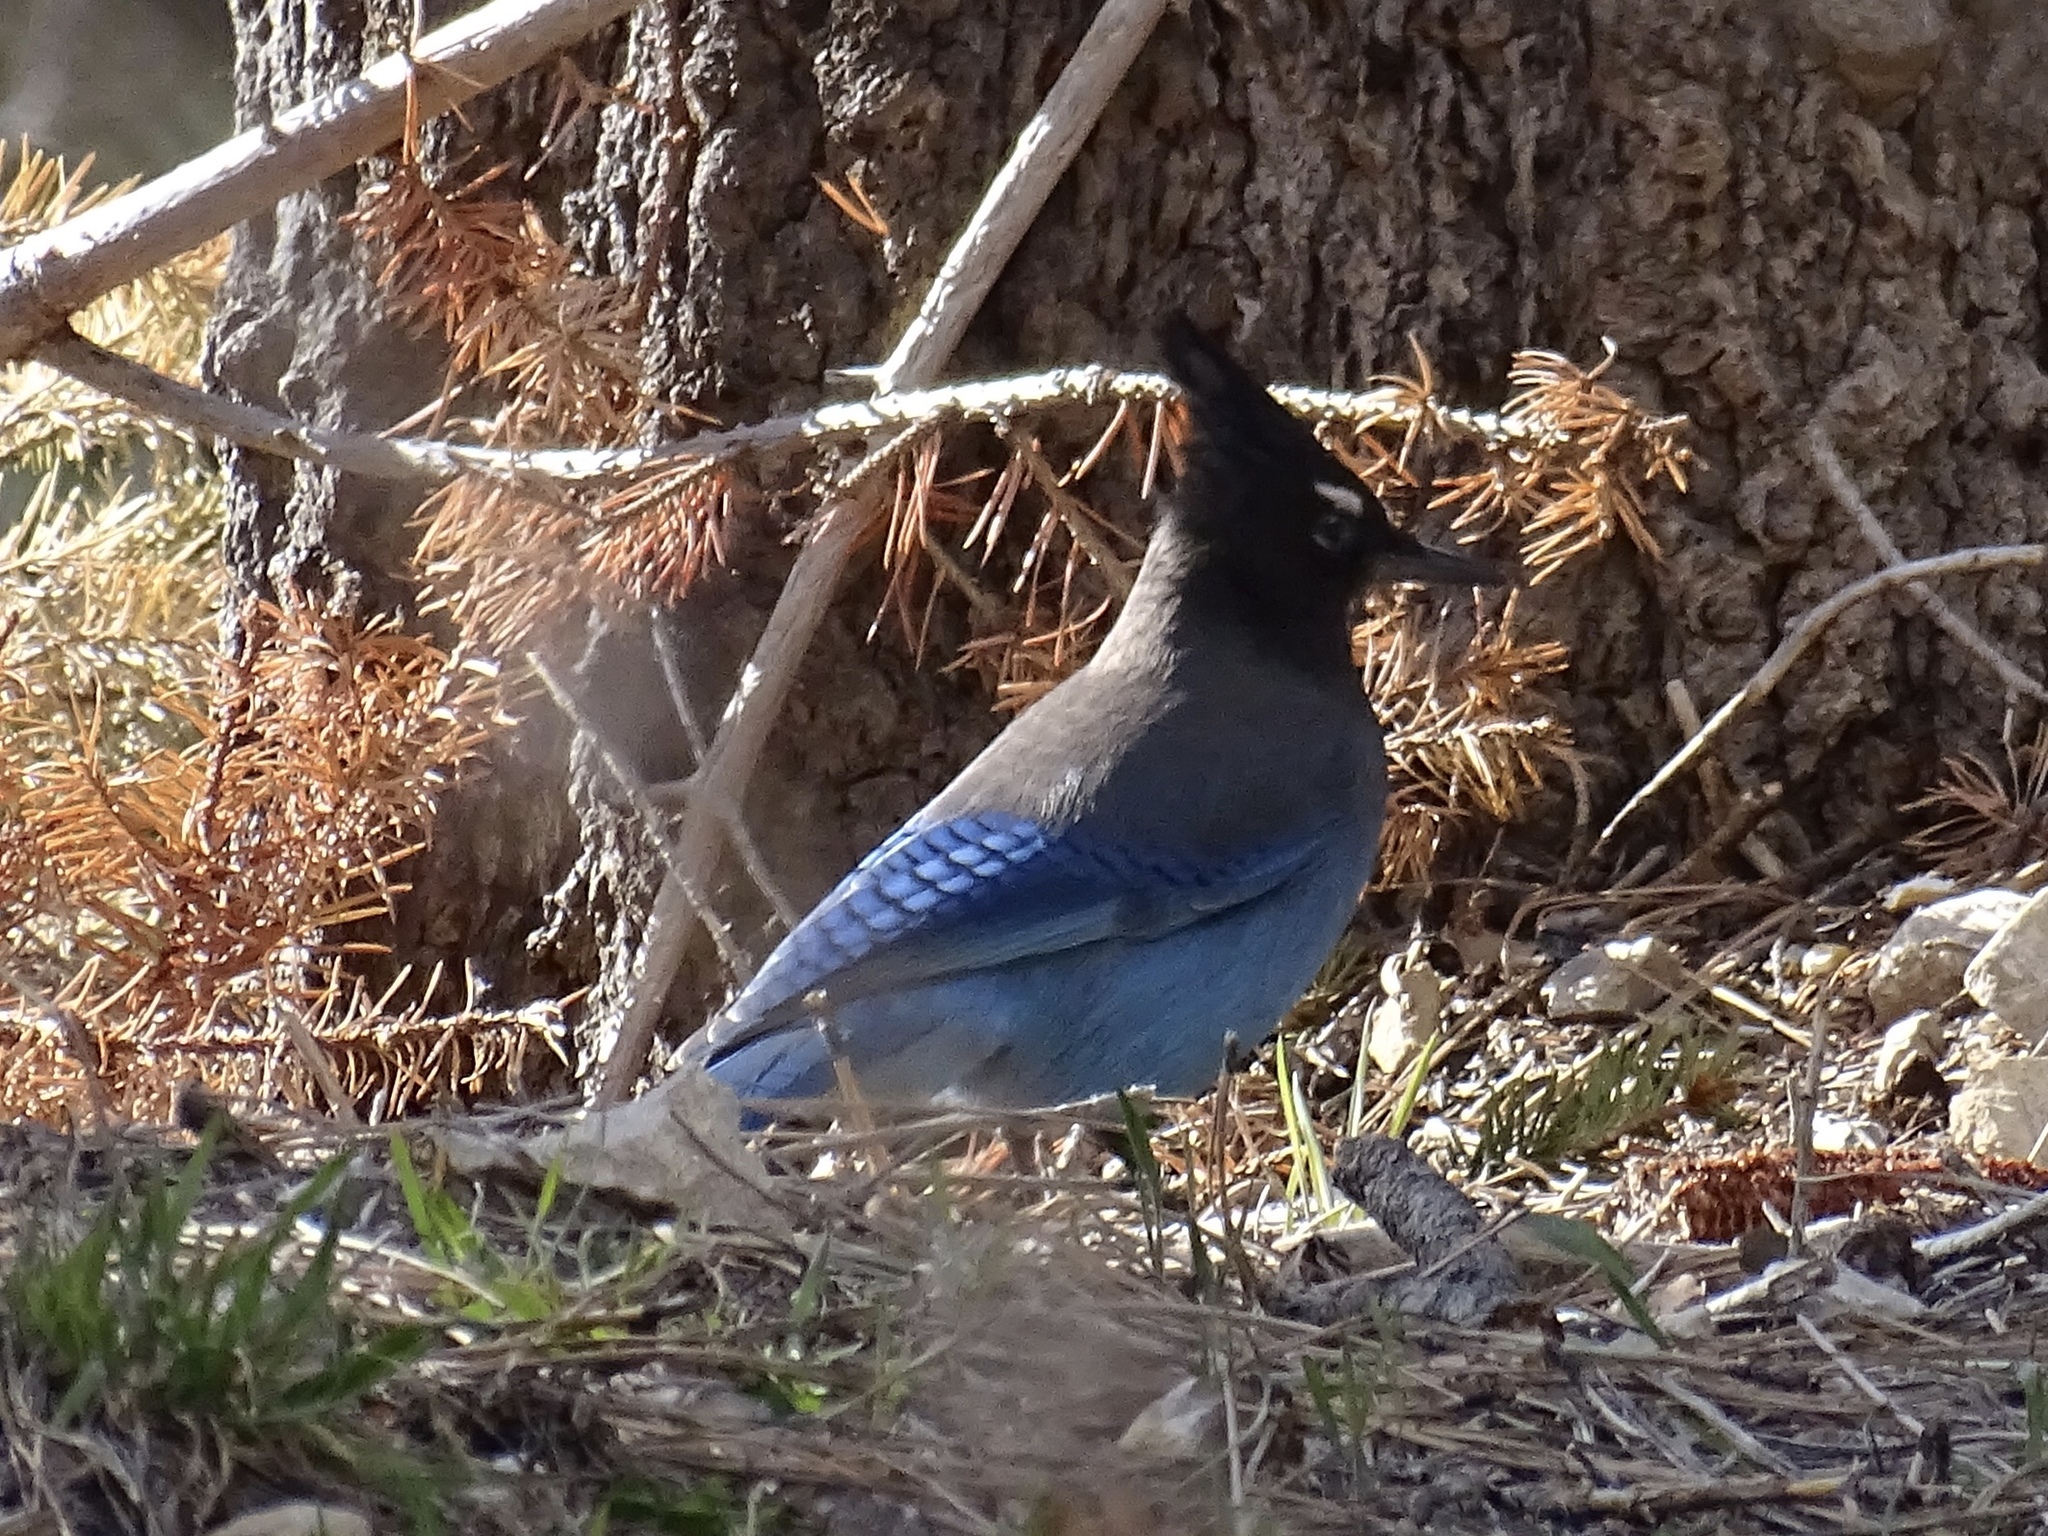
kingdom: Animalia
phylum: Chordata
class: Aves
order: Passeriformes
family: Corvidae
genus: Cyanocitta
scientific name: Cyanocitta stelleri
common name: Steller's jay
